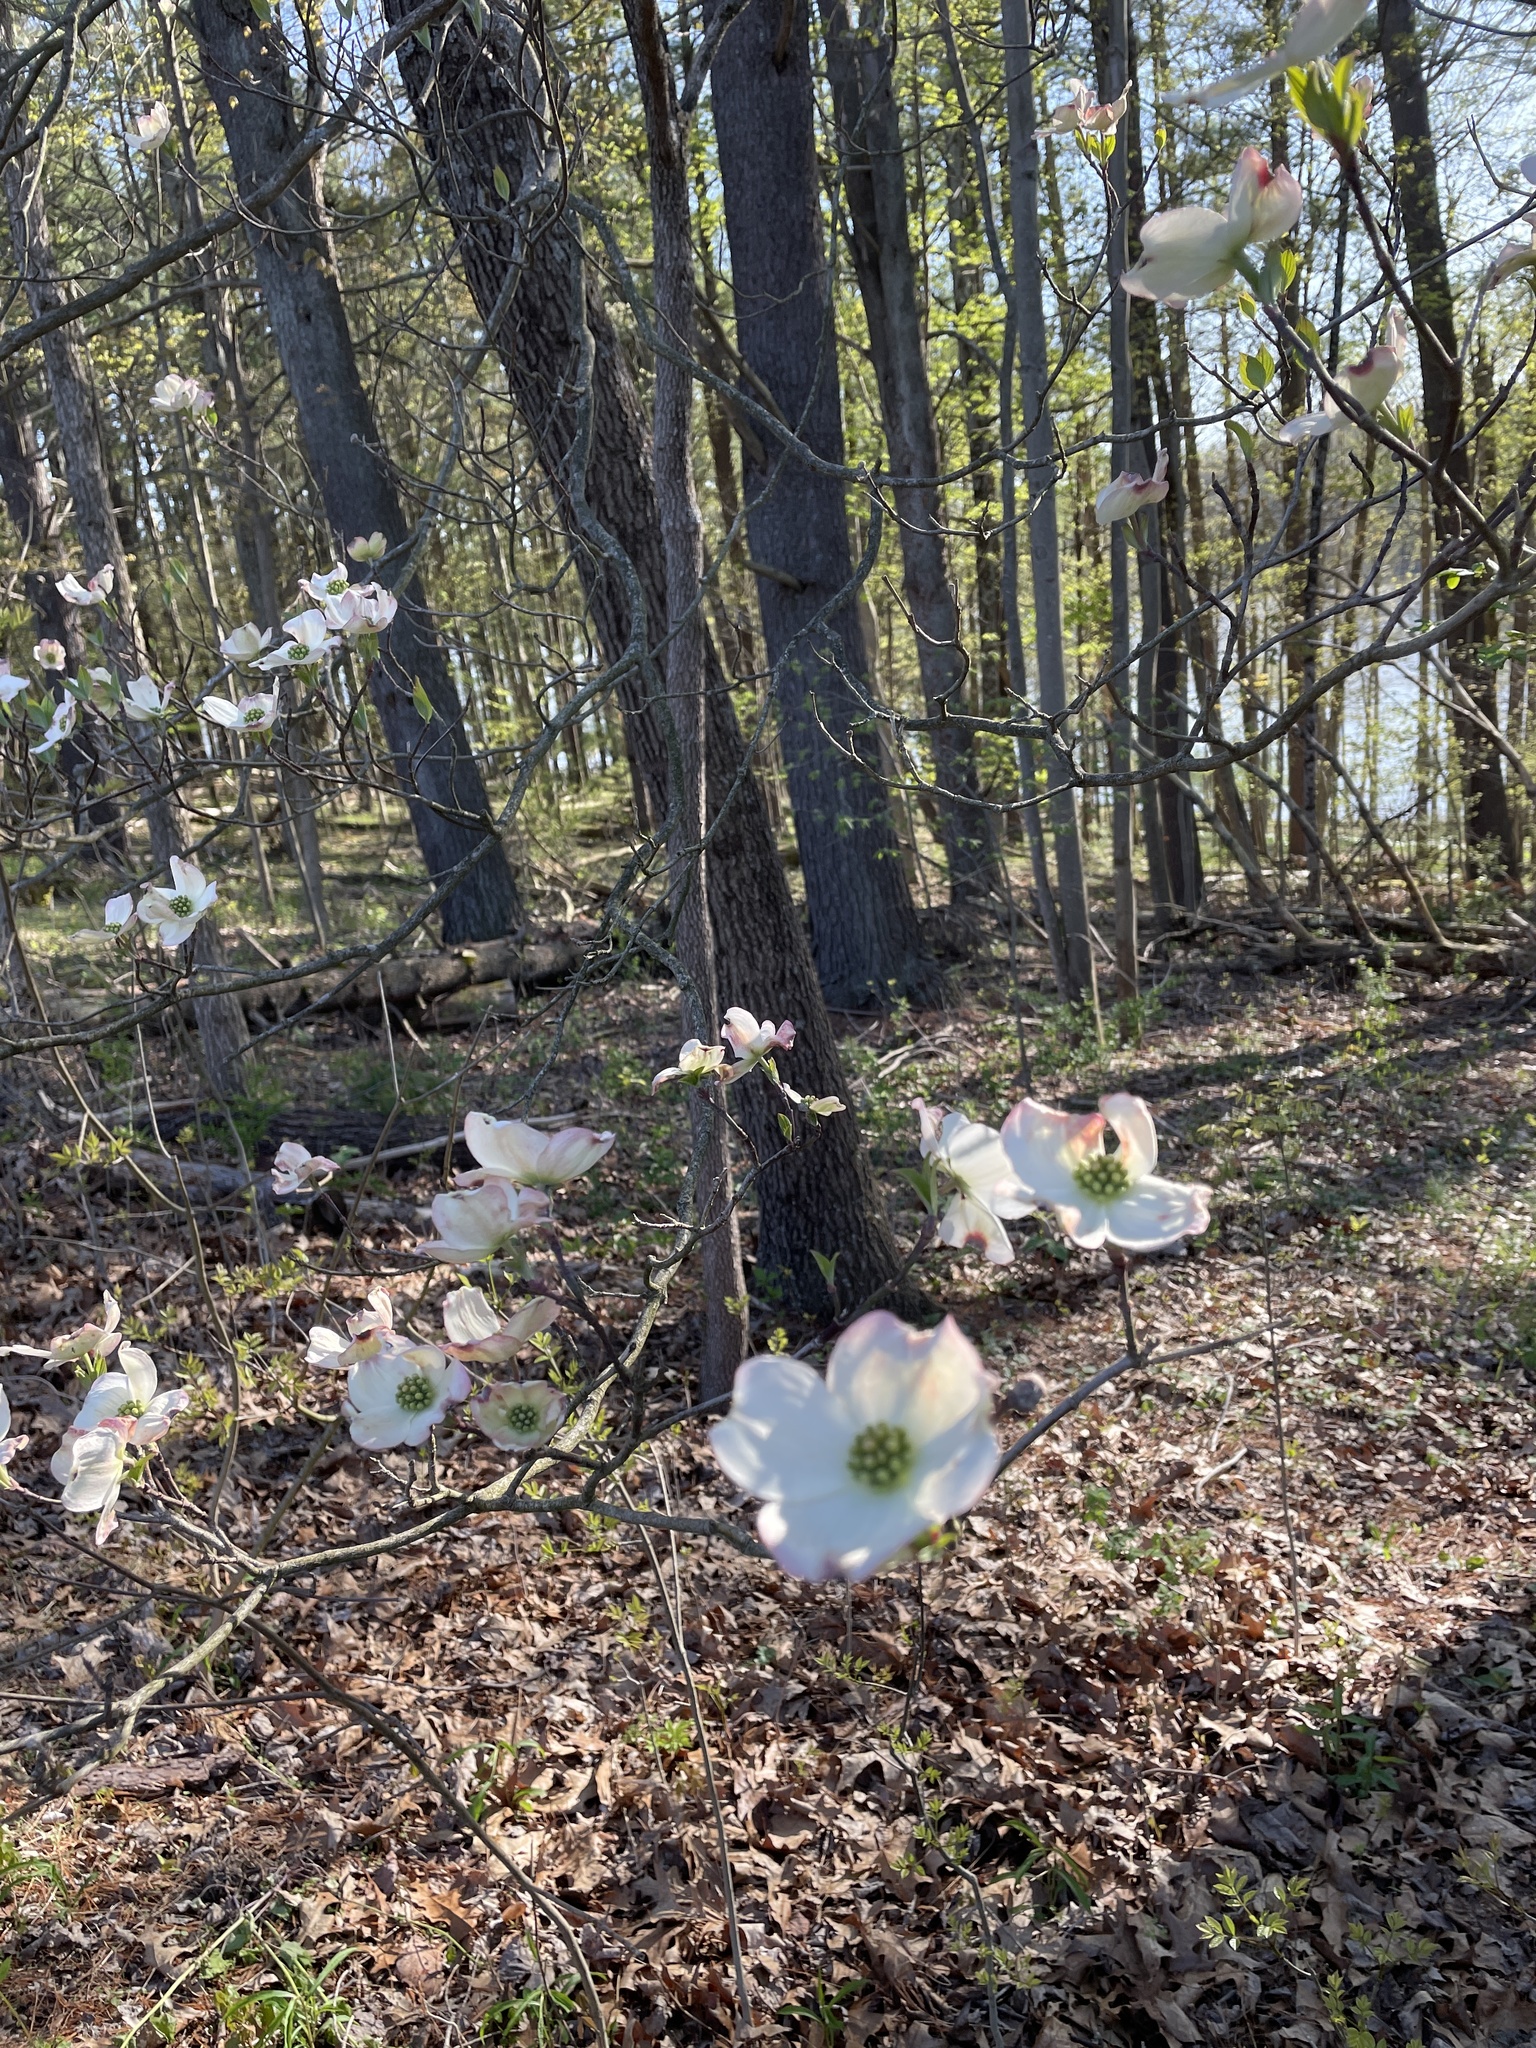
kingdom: Plantae
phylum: Tracheophyta
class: Magnoliopsida
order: Cornales
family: Cornaceae
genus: Cornus
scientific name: Cornus florida
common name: Flowering dogwood
